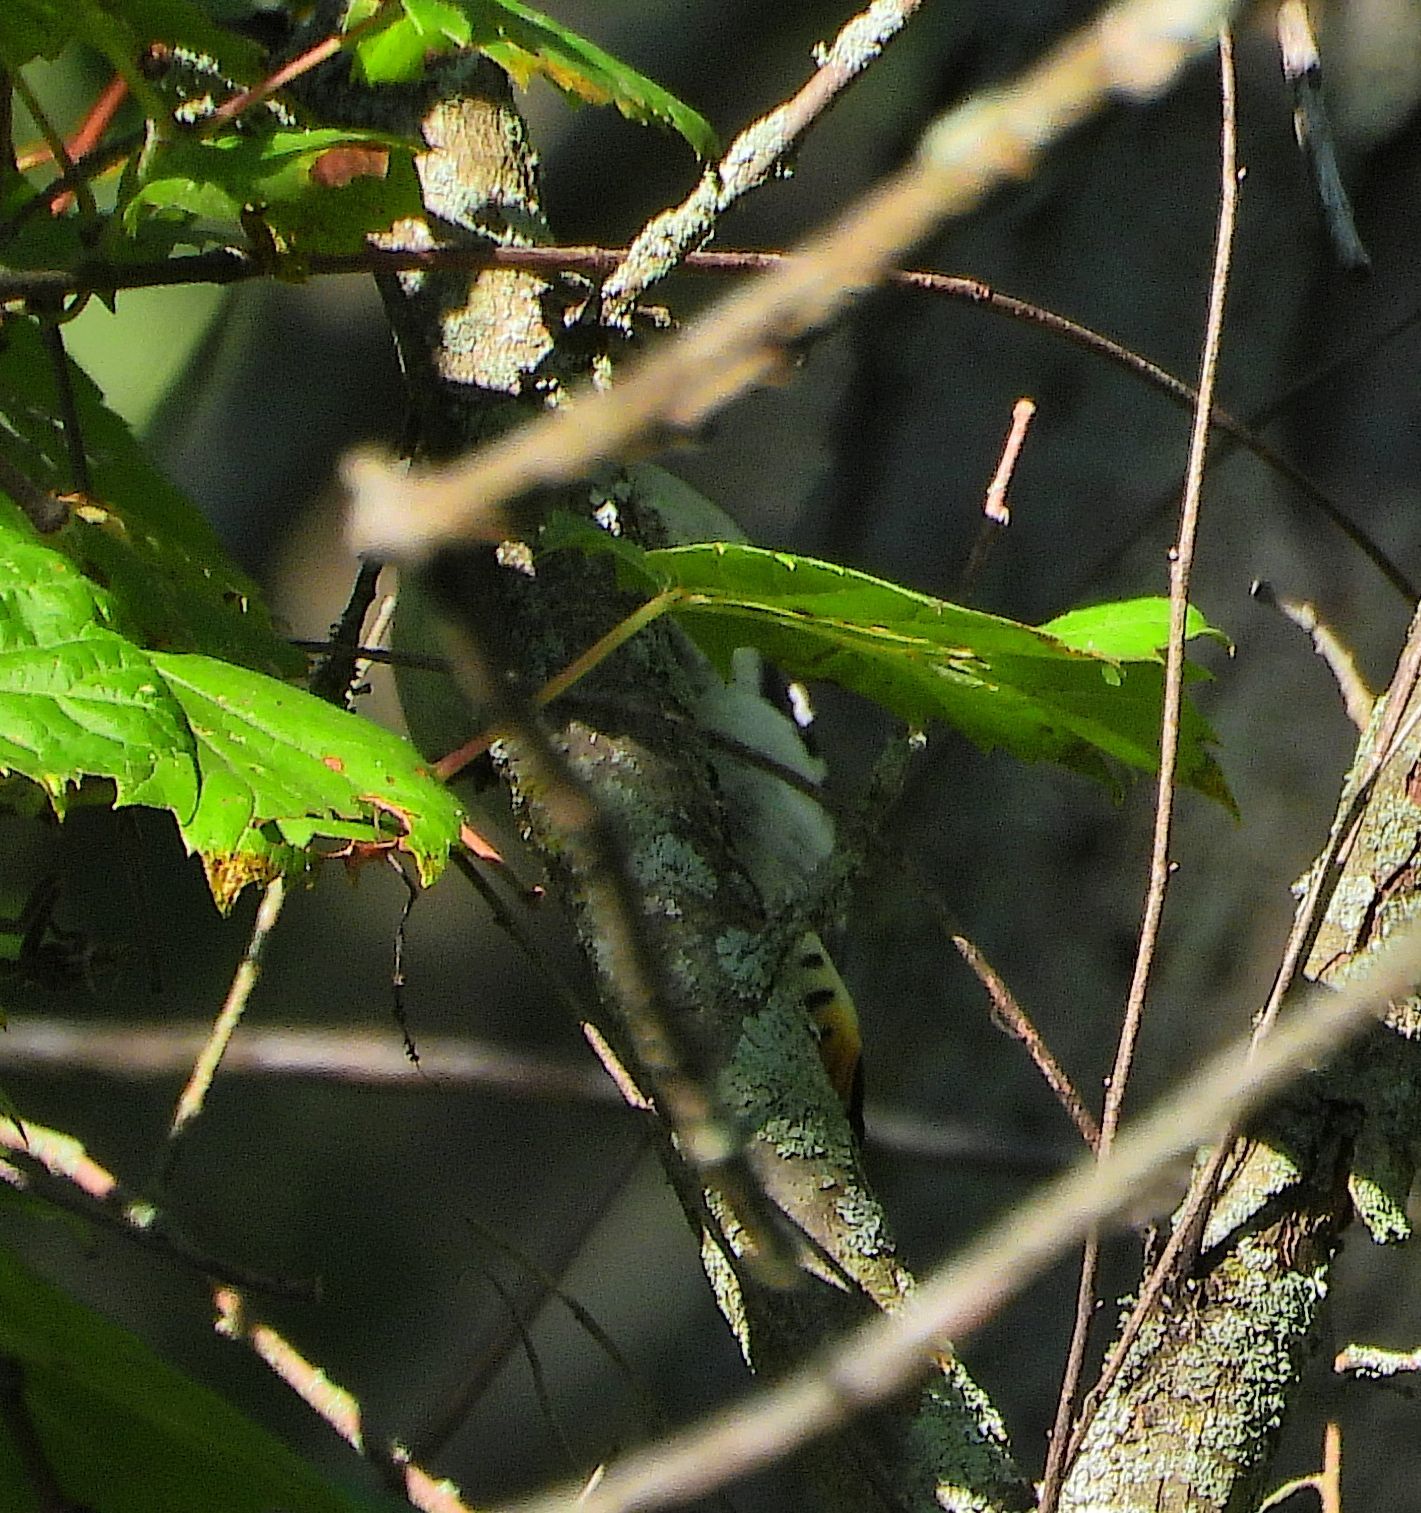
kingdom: Animalia
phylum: Chordata
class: Aves
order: Piciformes
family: Picidae
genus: Dryobates
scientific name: Dryobates pubescens
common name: Downy woodpecker
